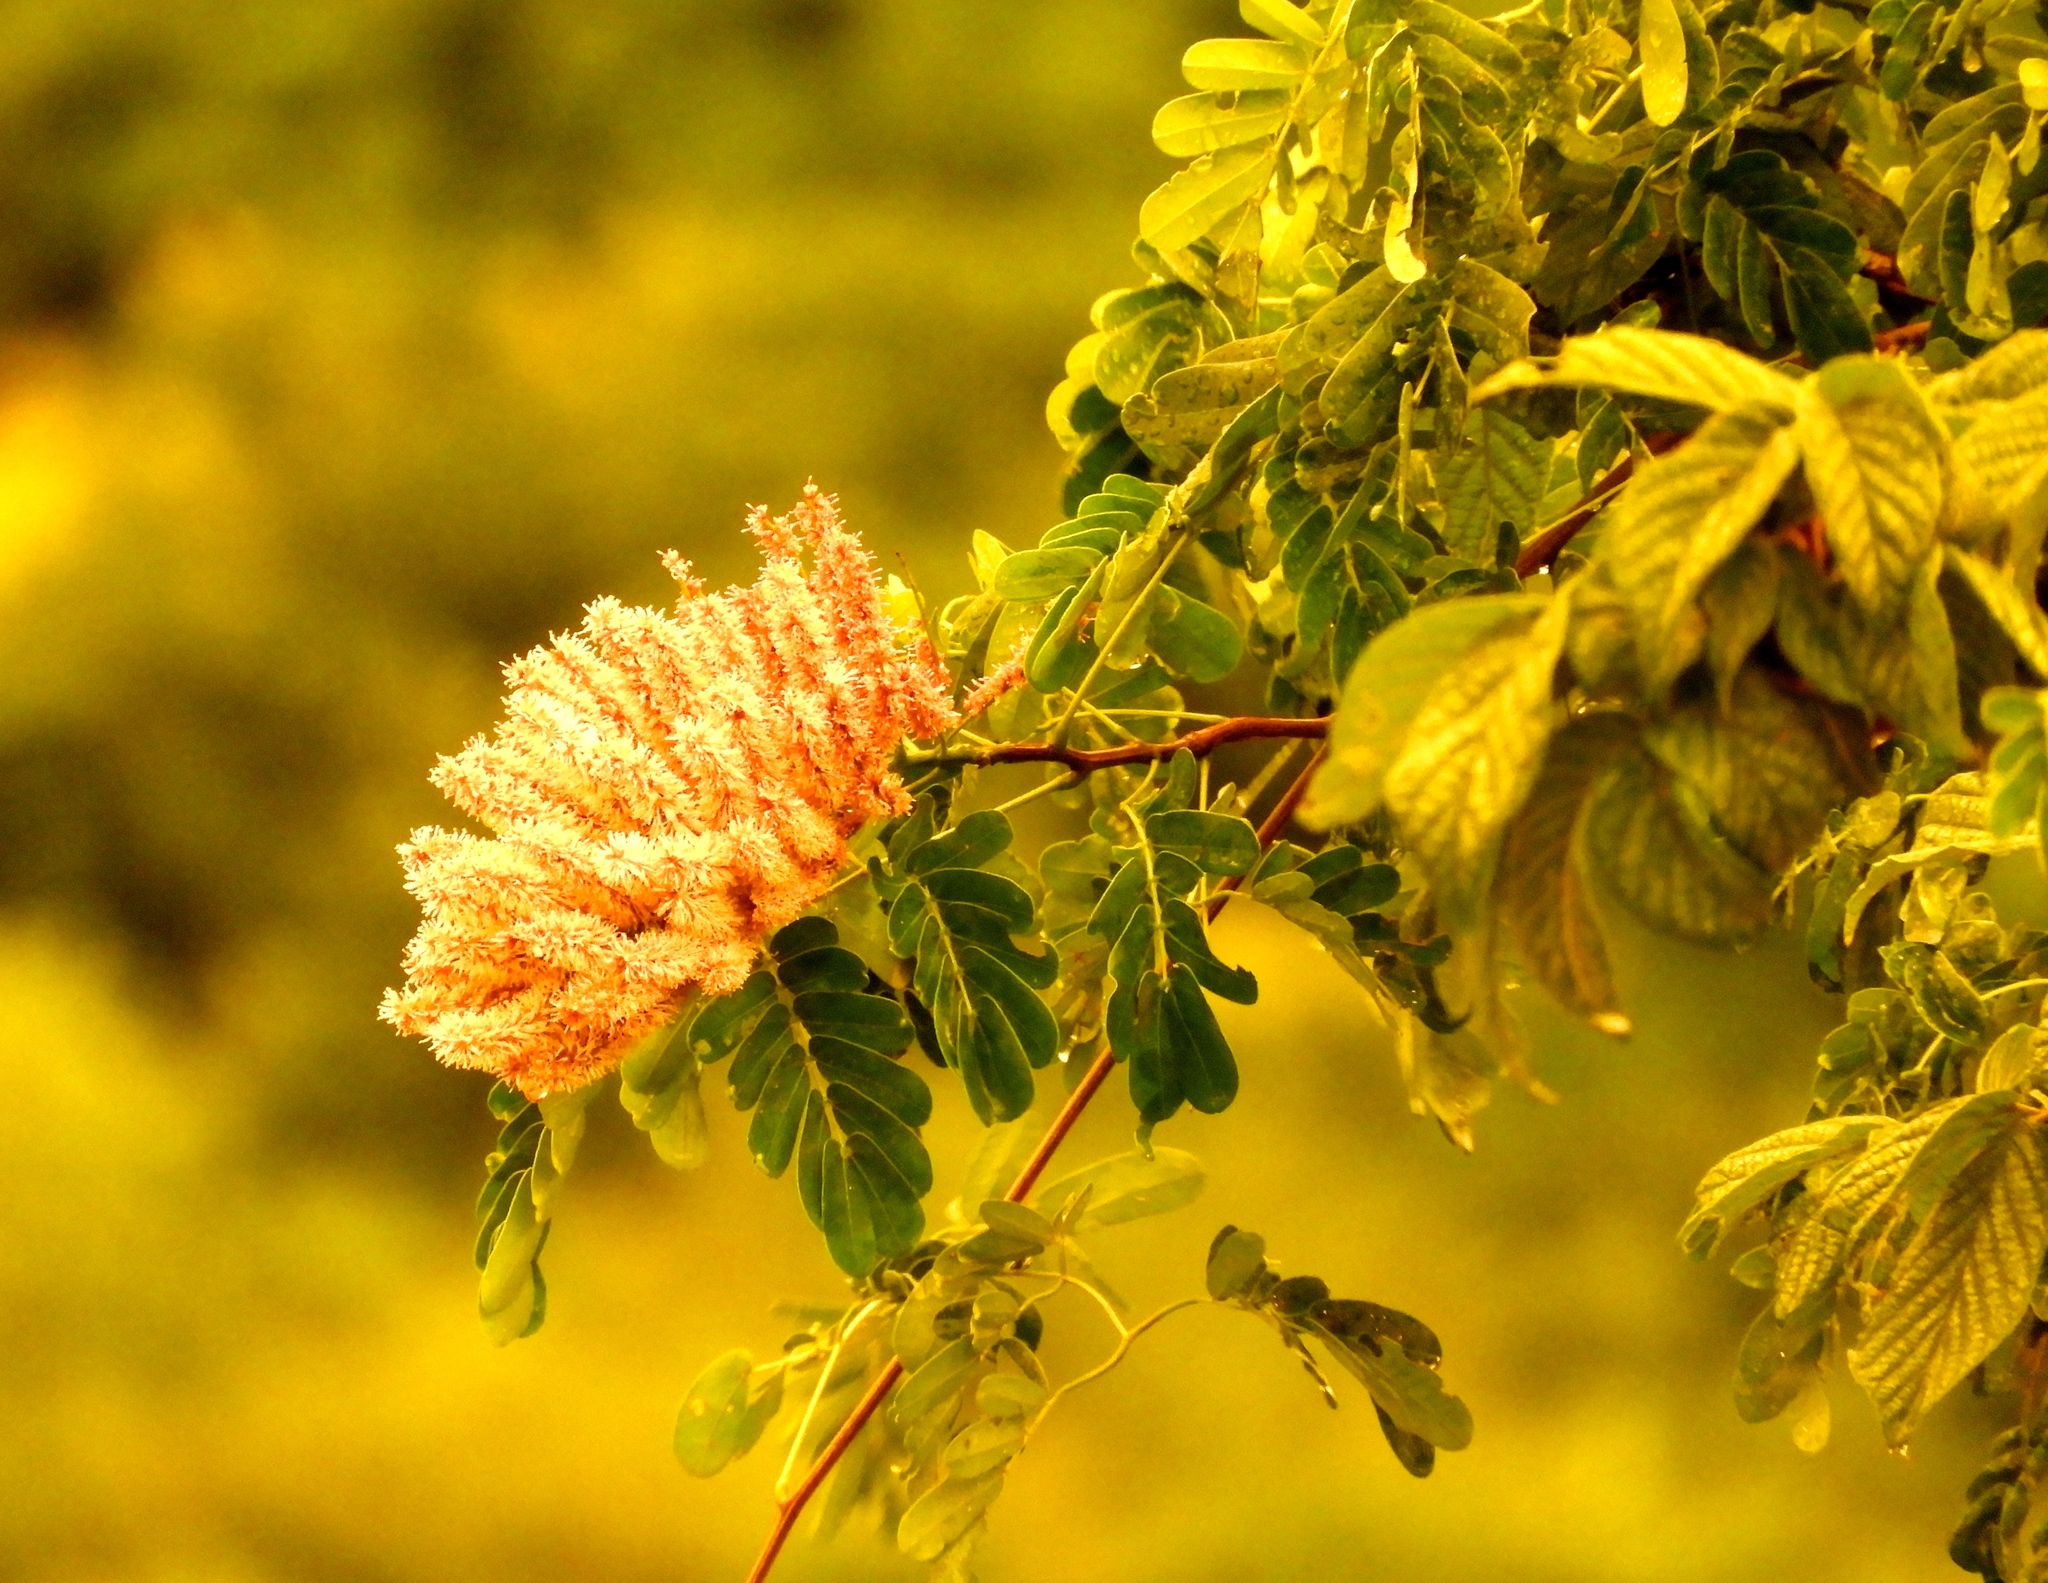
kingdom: Plantae
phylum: Tracheophyta
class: Magnoliopsida
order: Fabales
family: Fabaceae
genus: Entada
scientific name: Entada polystachya
